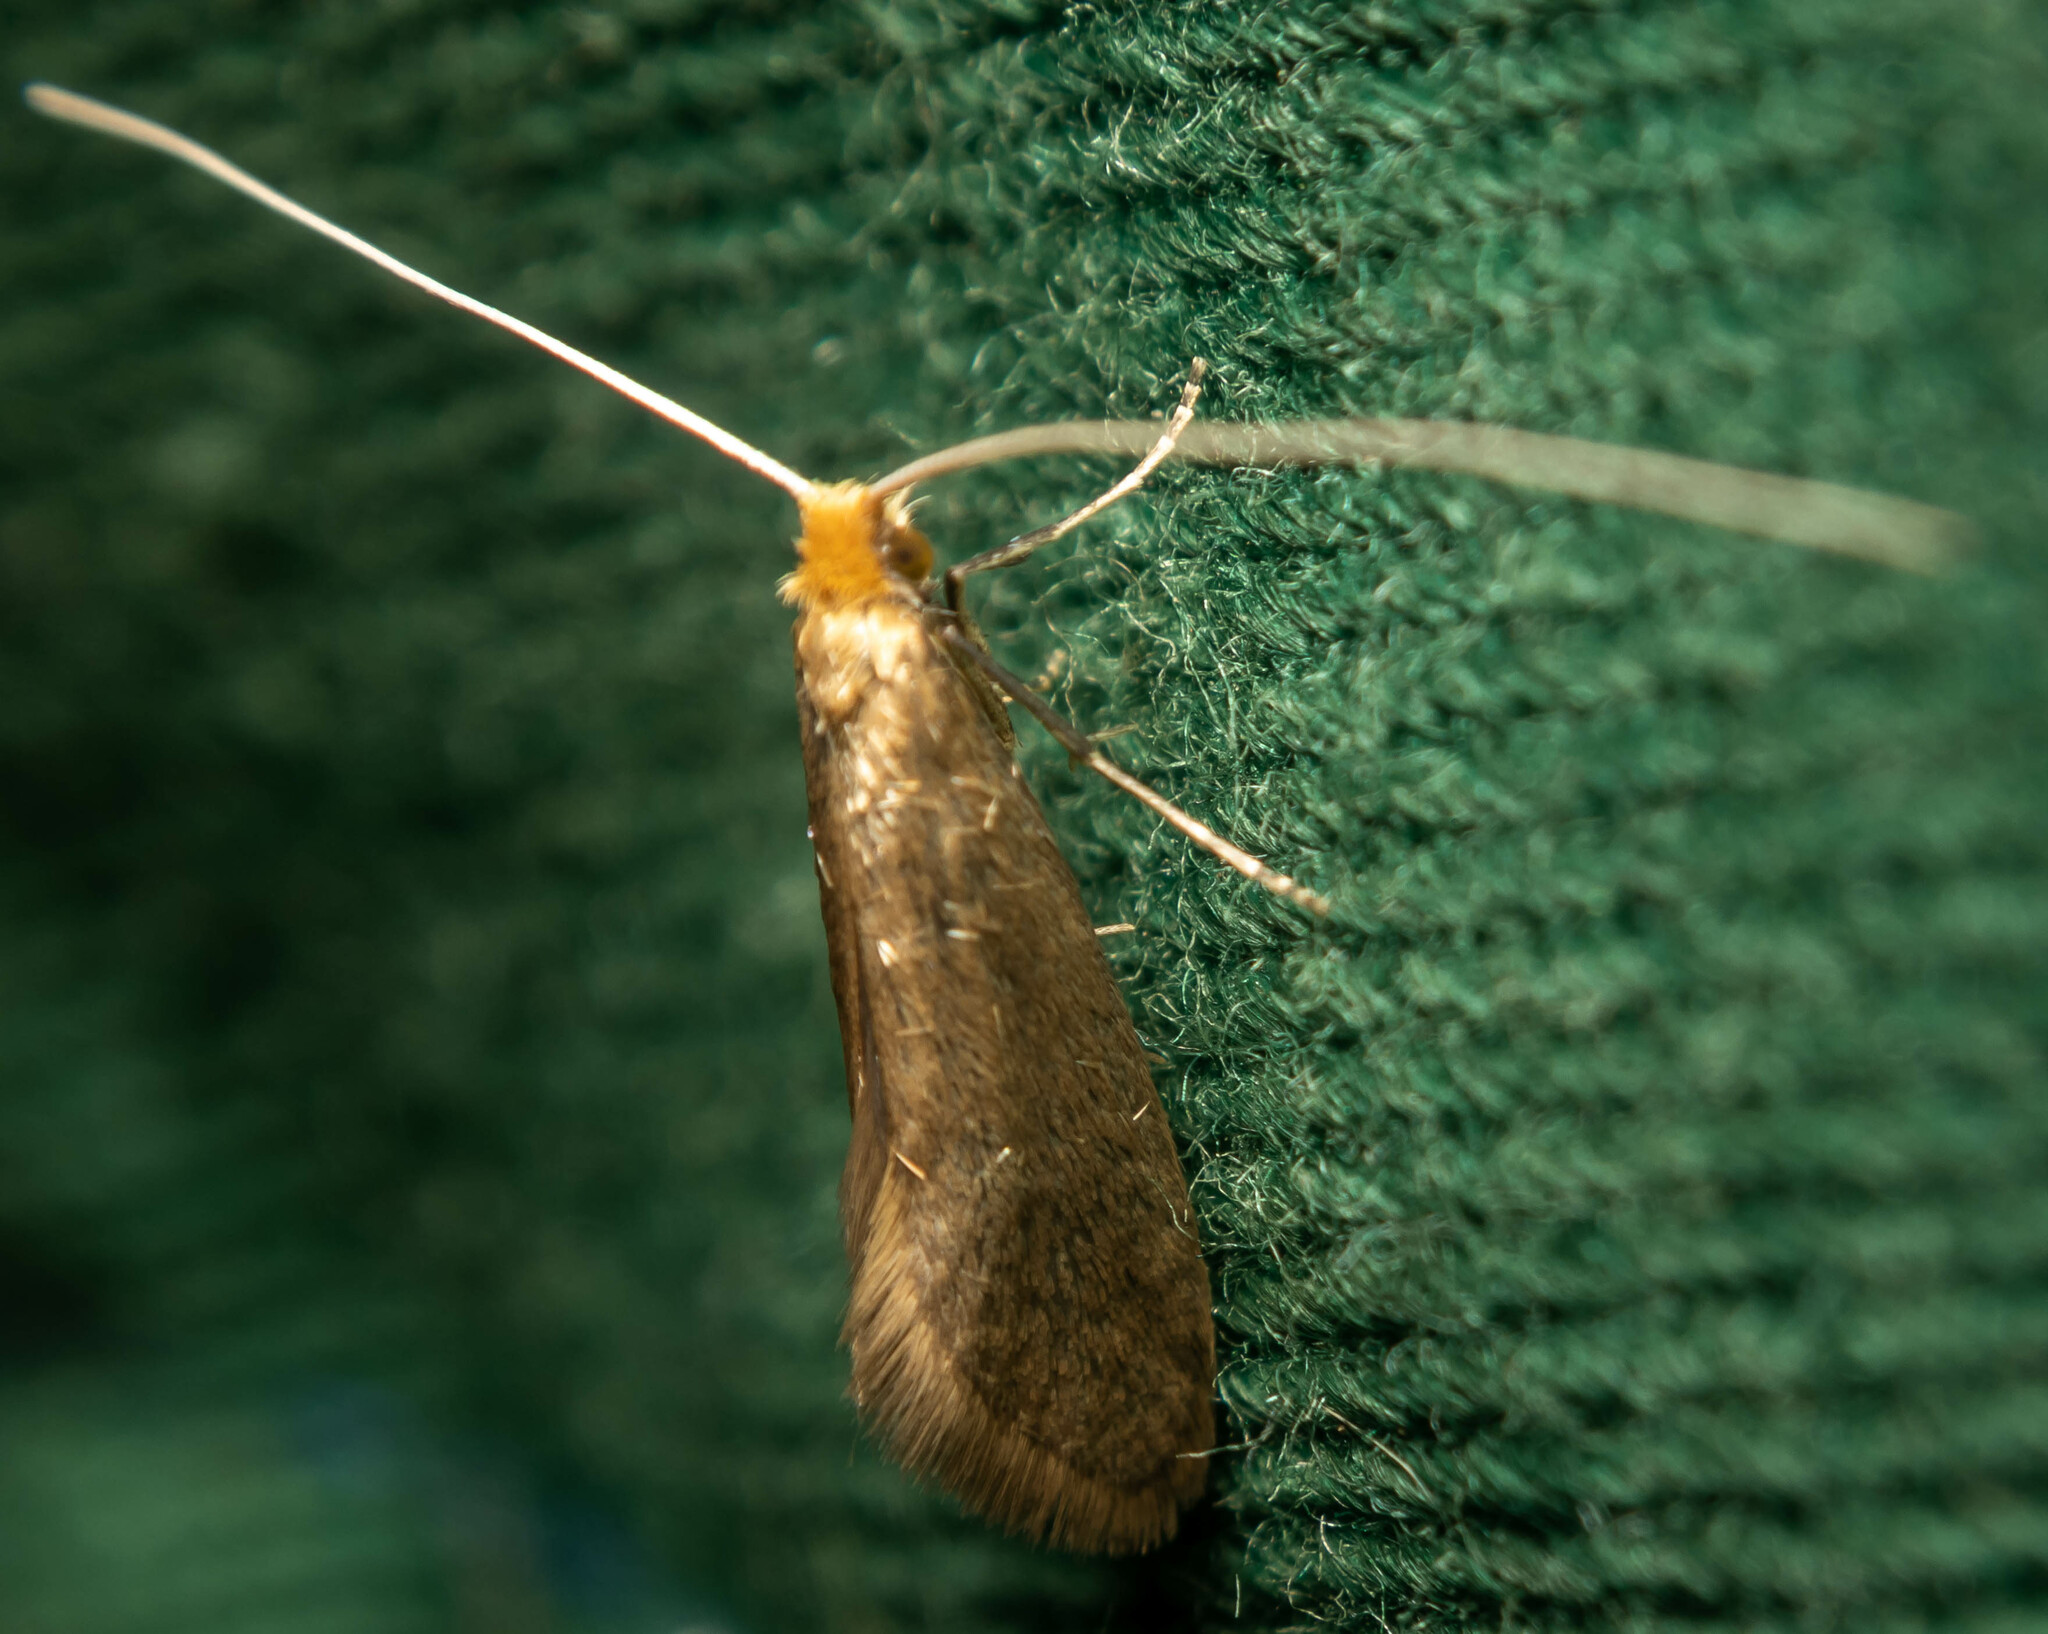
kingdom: Animalia
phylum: Arthropoda
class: Insecta
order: Lepidoptera
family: Adelidae
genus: Nematopogon
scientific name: Nematopogon swammerdamella
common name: Large long-horn
